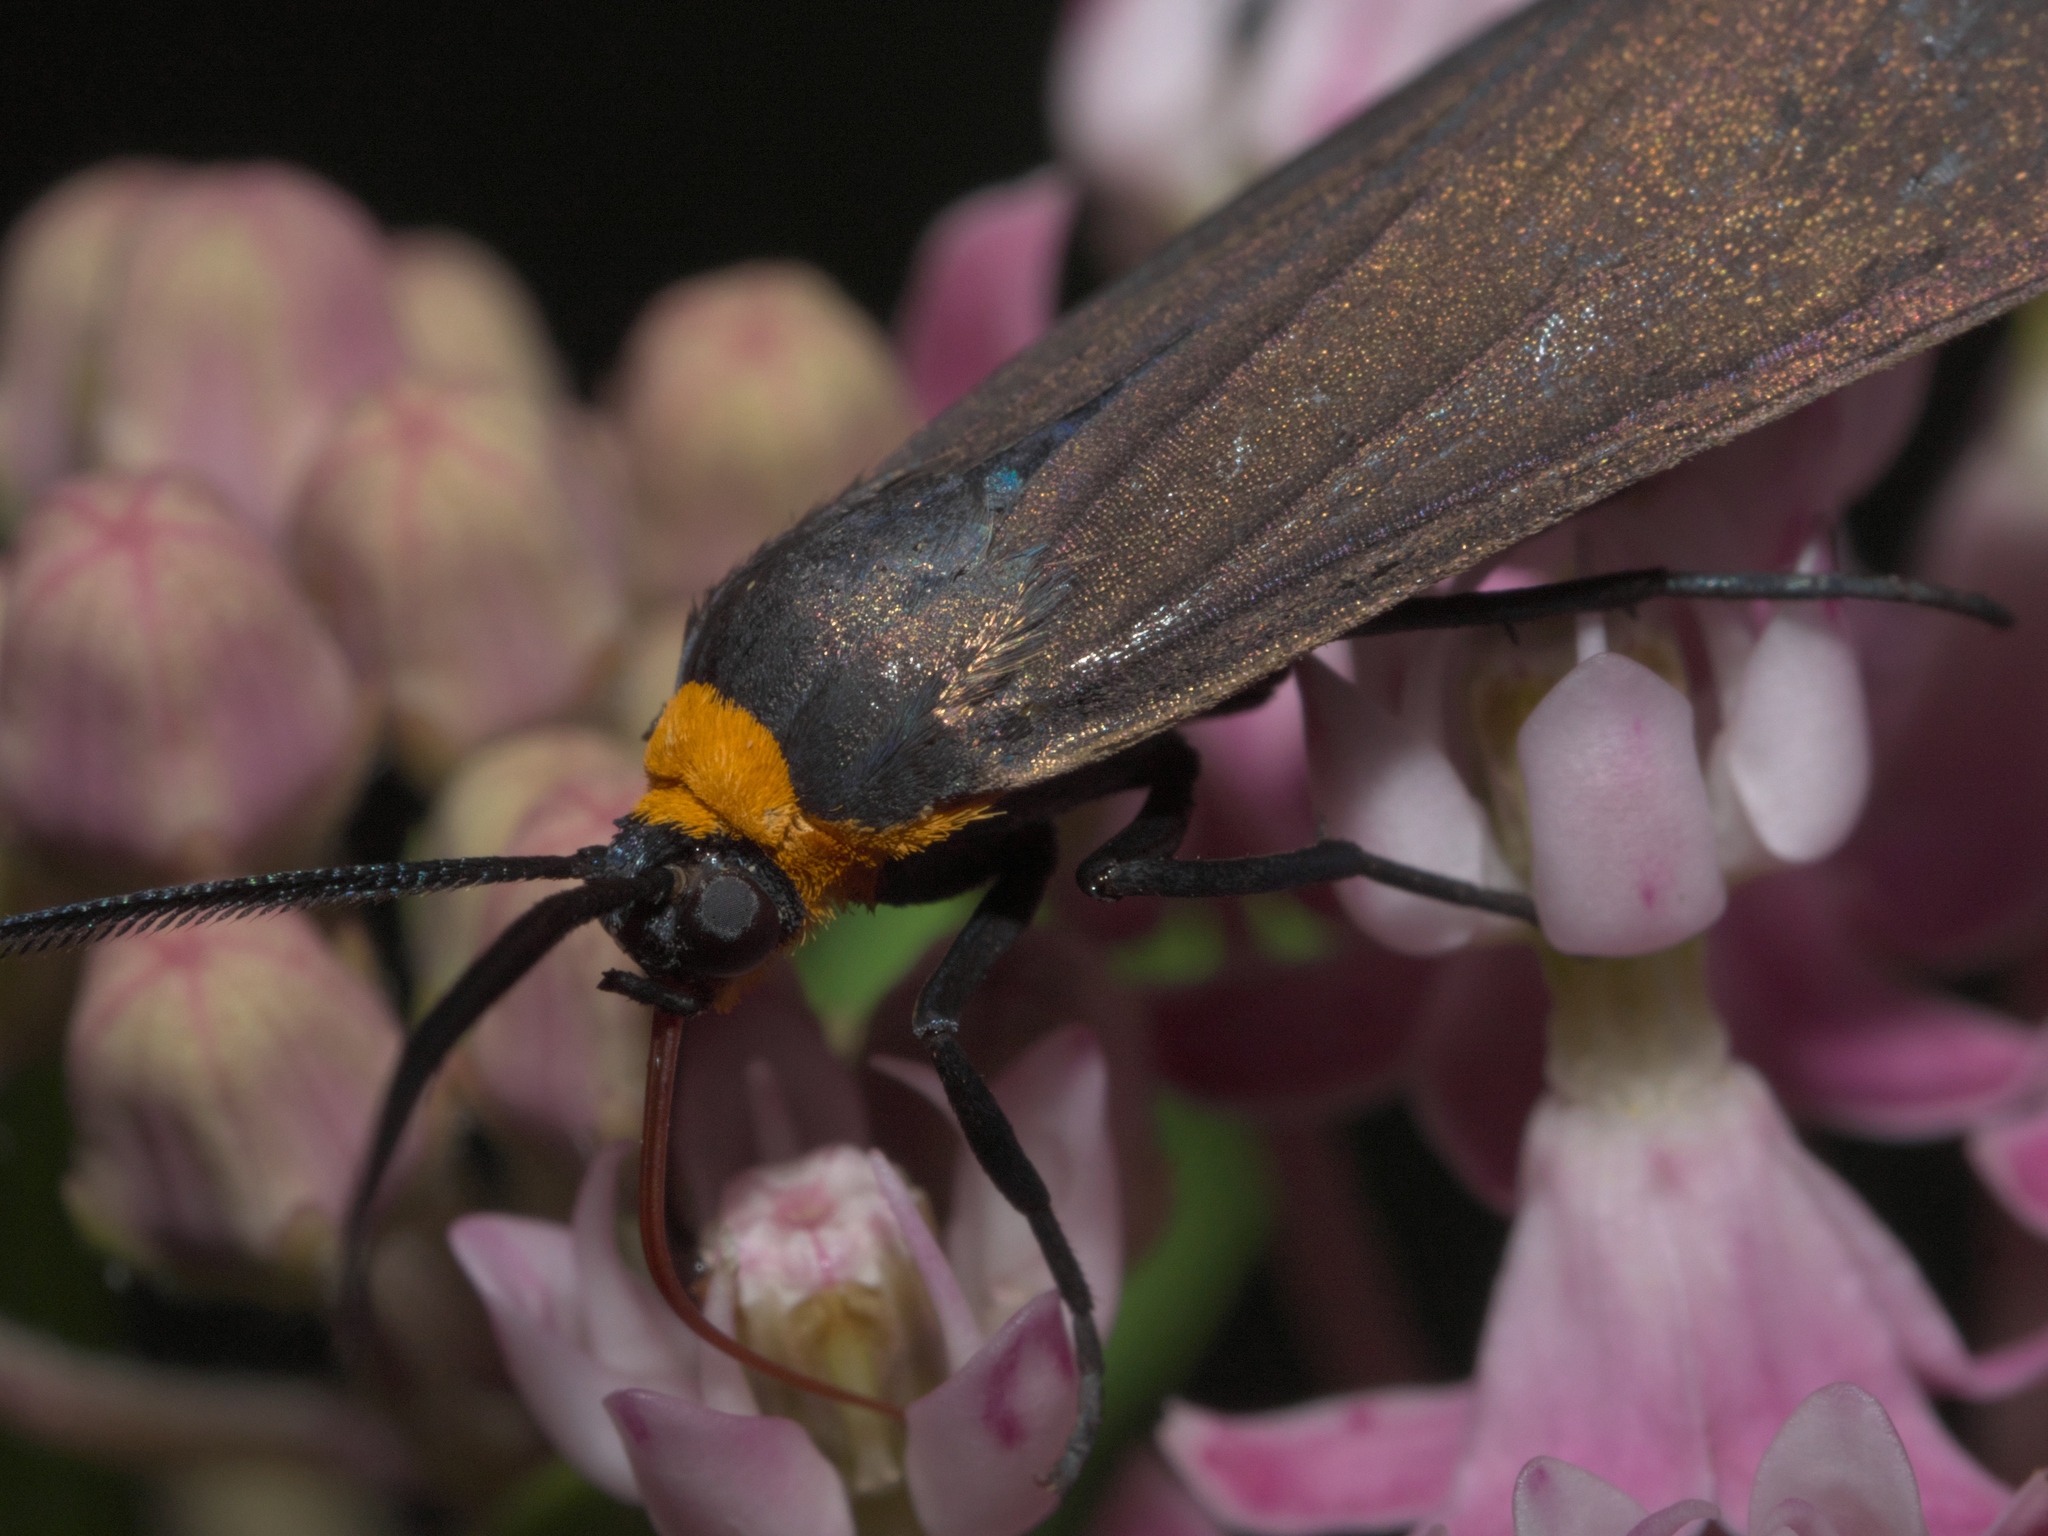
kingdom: Animalia
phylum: Arthropoda
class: Insecta
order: Lepidoptera
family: Erebidae
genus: Cisseps
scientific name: Cisseps fulvicollis
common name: Yellow-collared scape moth
